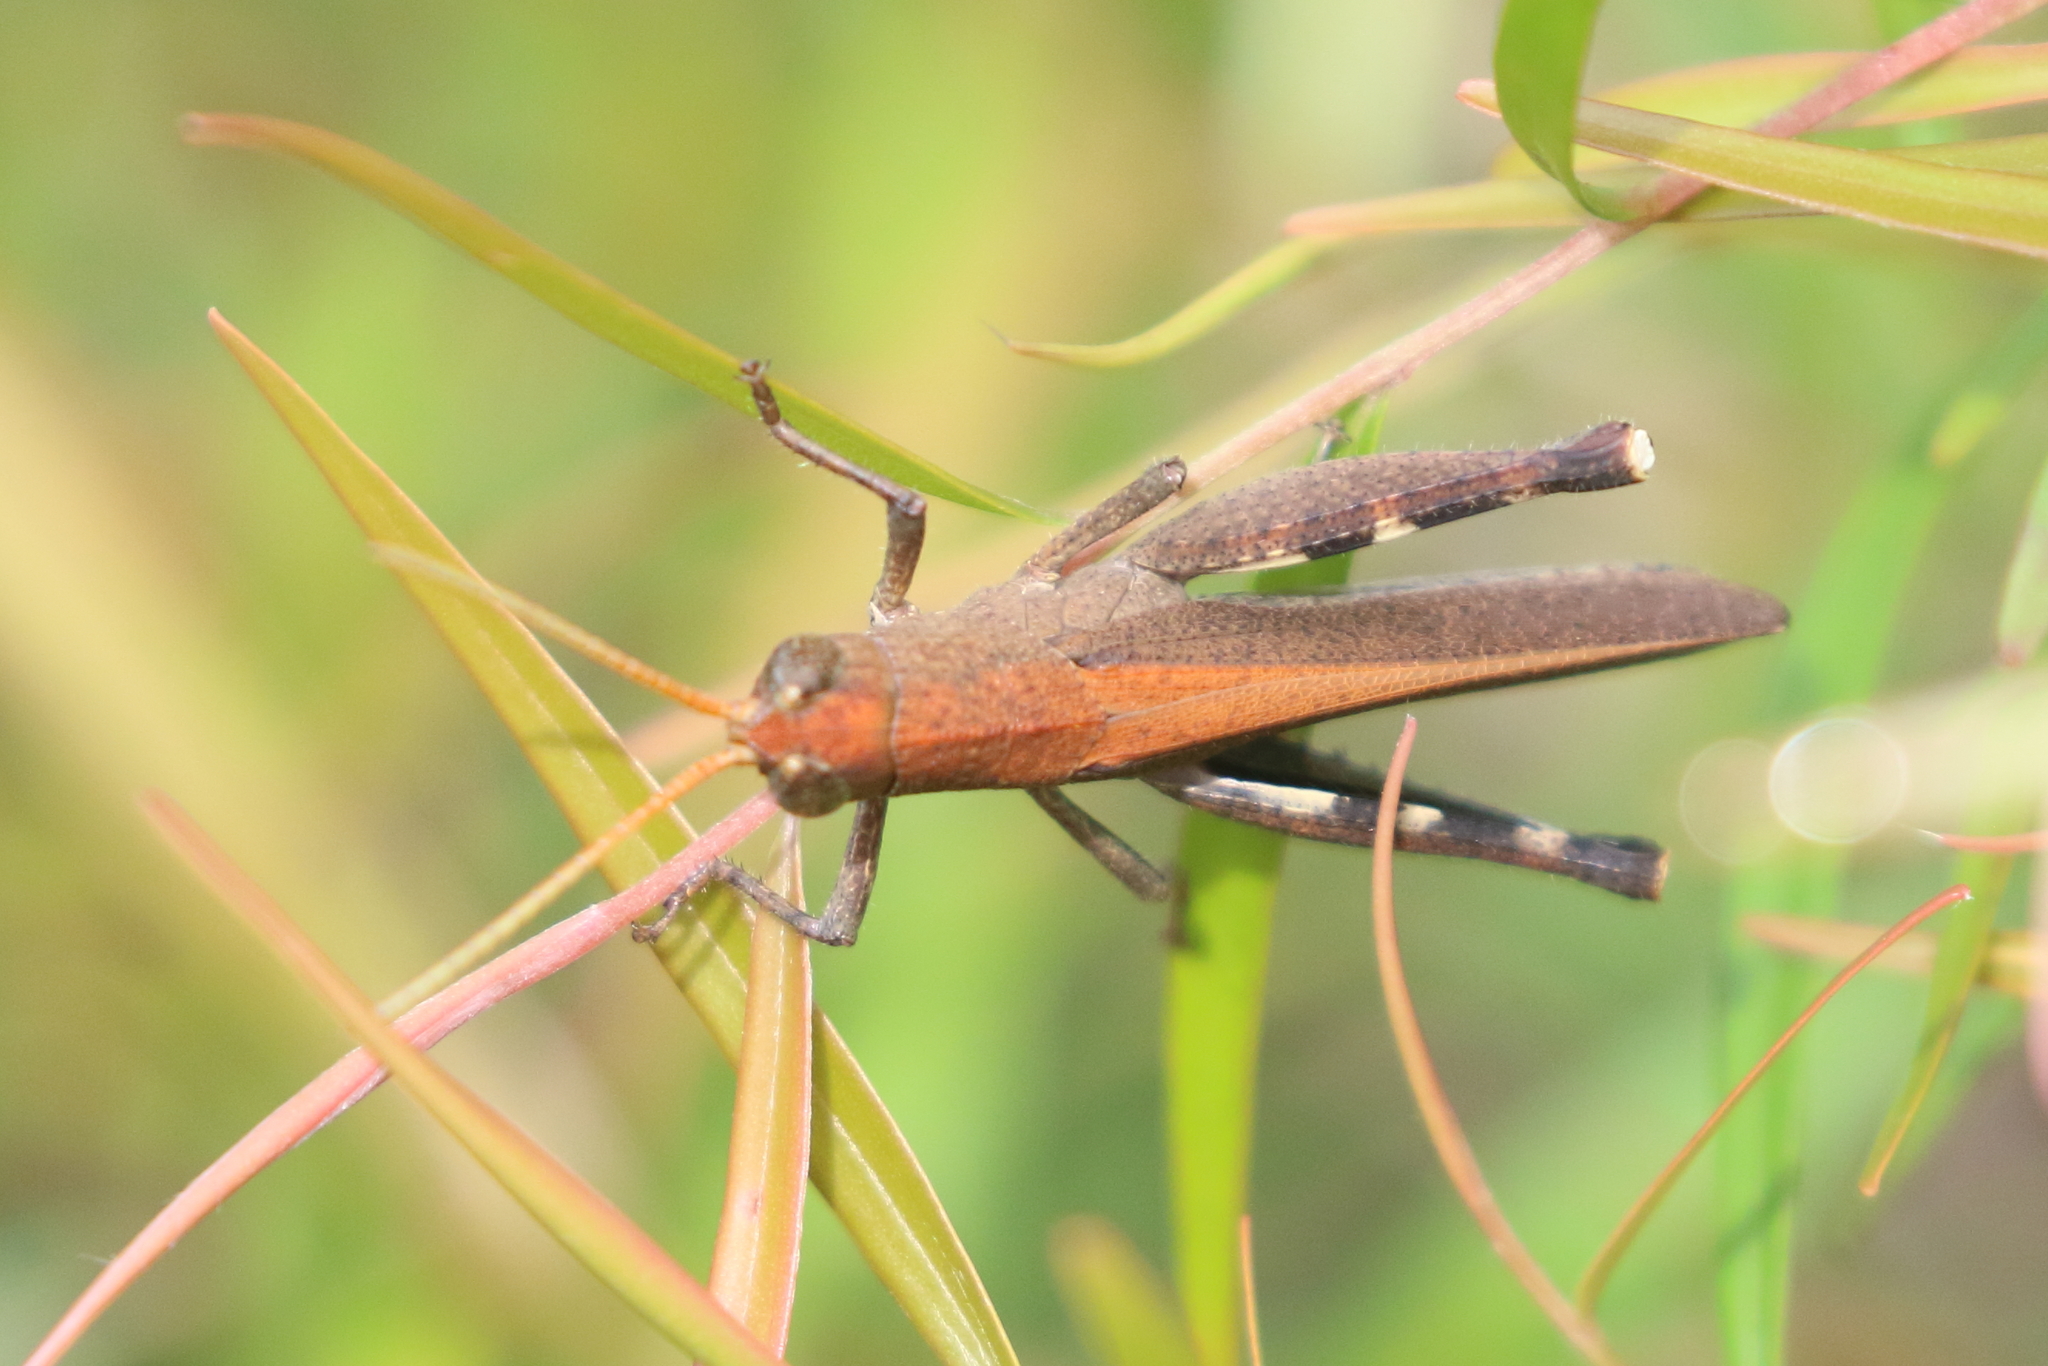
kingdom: Animalia
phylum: Arthropoda
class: Insecta
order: Orthoptera
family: Acrididae
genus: Goniaea
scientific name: Goniaea opomaloides
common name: Mimetic gumleaf grasshopper
